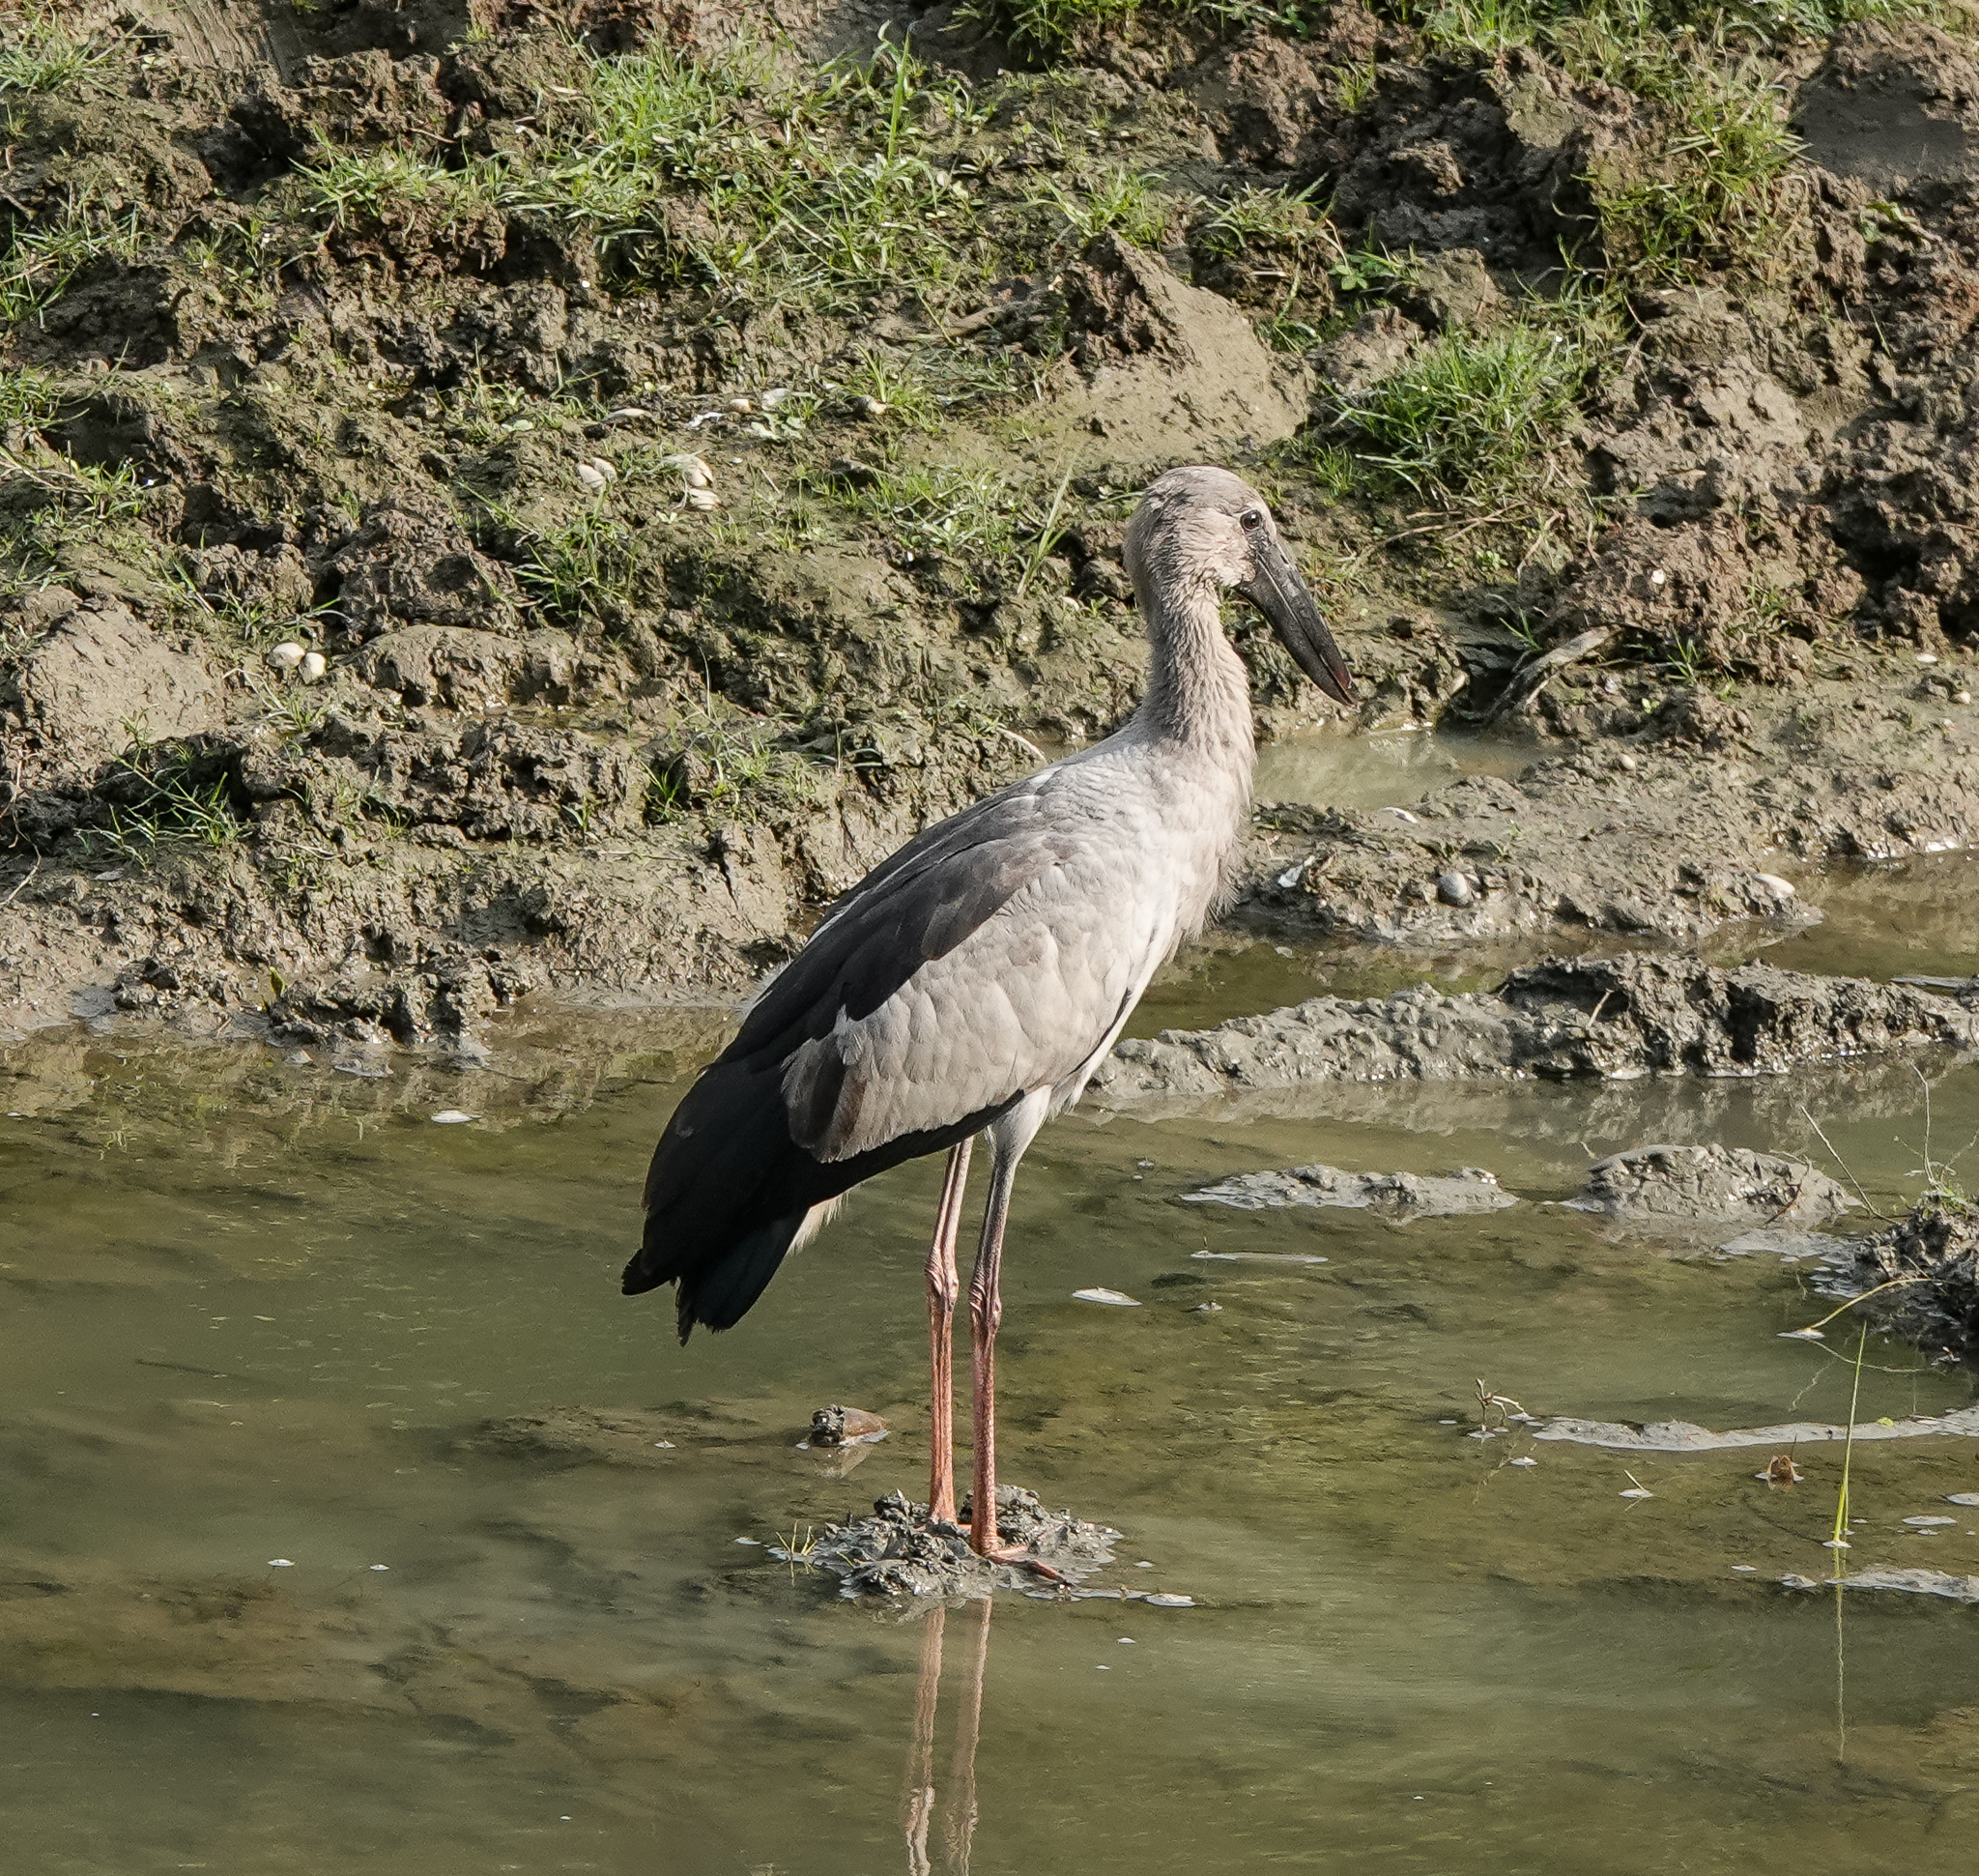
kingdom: Animalia
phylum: Chordata
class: Aves
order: Ciconiiformes
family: Ciconiidae
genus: Anastomus
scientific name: Anastomus oscitans
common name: Asian openbill
